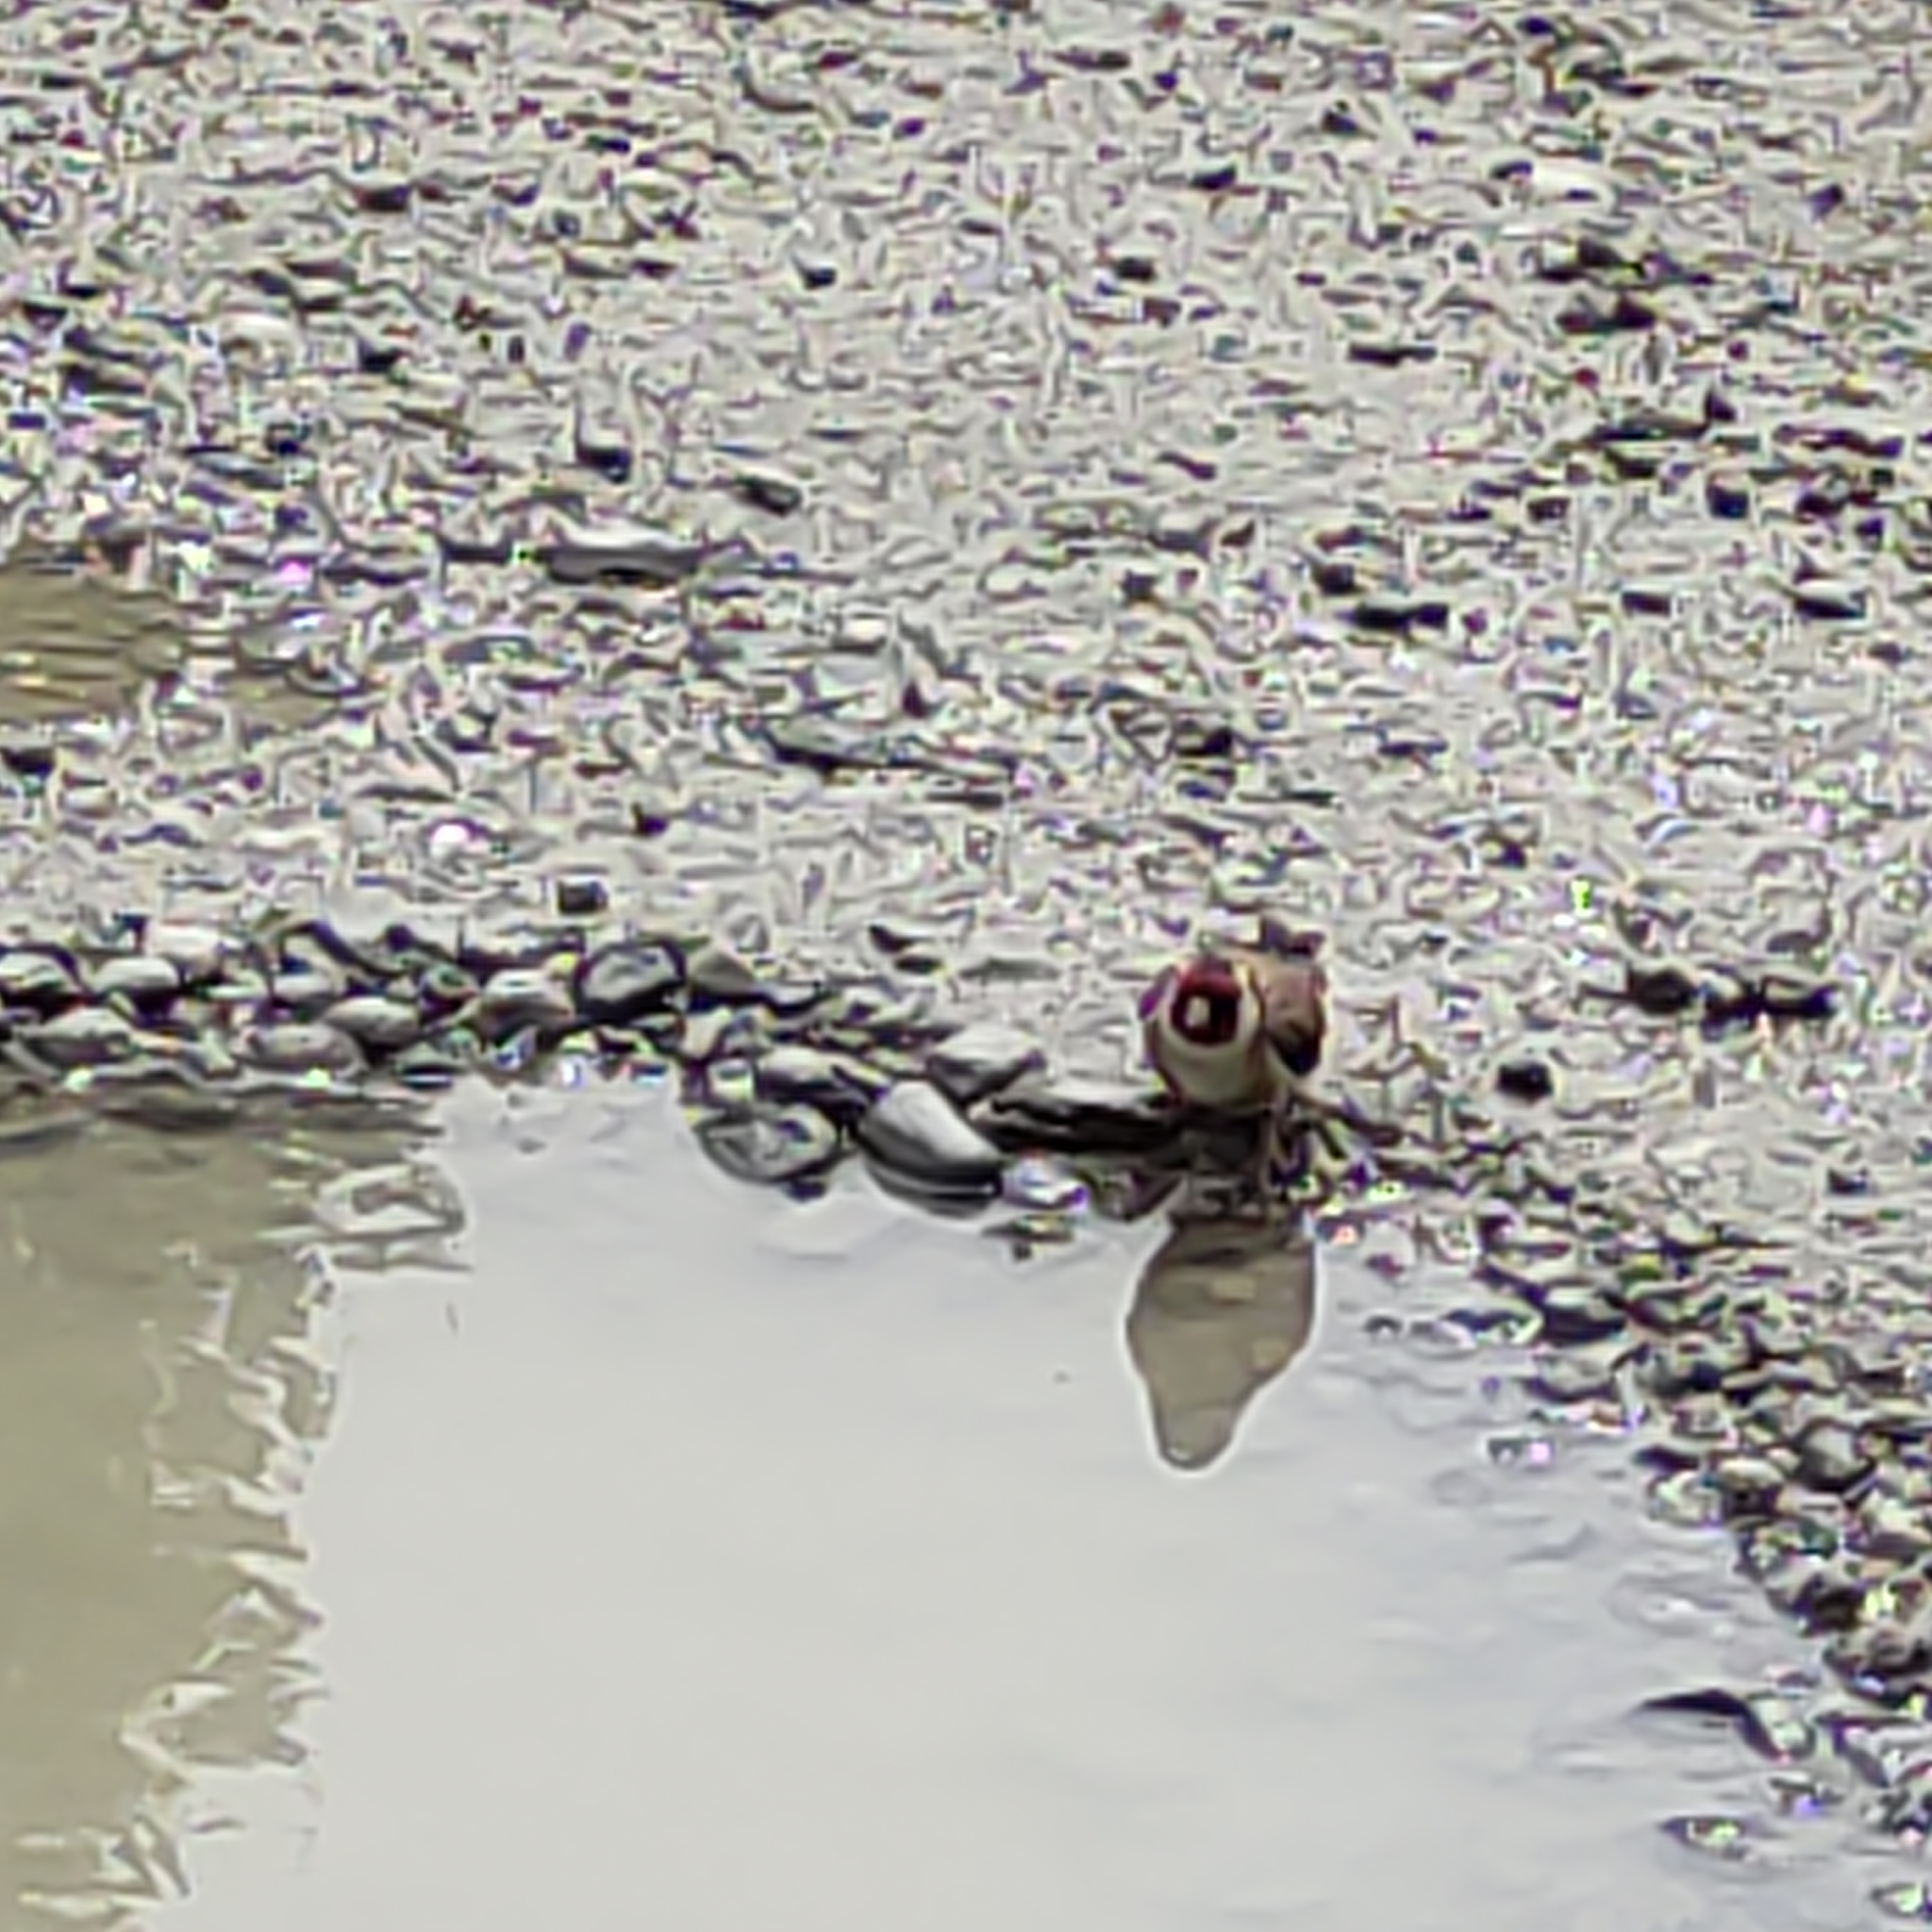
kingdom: Animalia
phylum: Chordata
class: Aves
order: Passeriformes
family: Fringillidae
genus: Carduelis
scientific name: Carduelis carduelis
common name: European goldfinch
